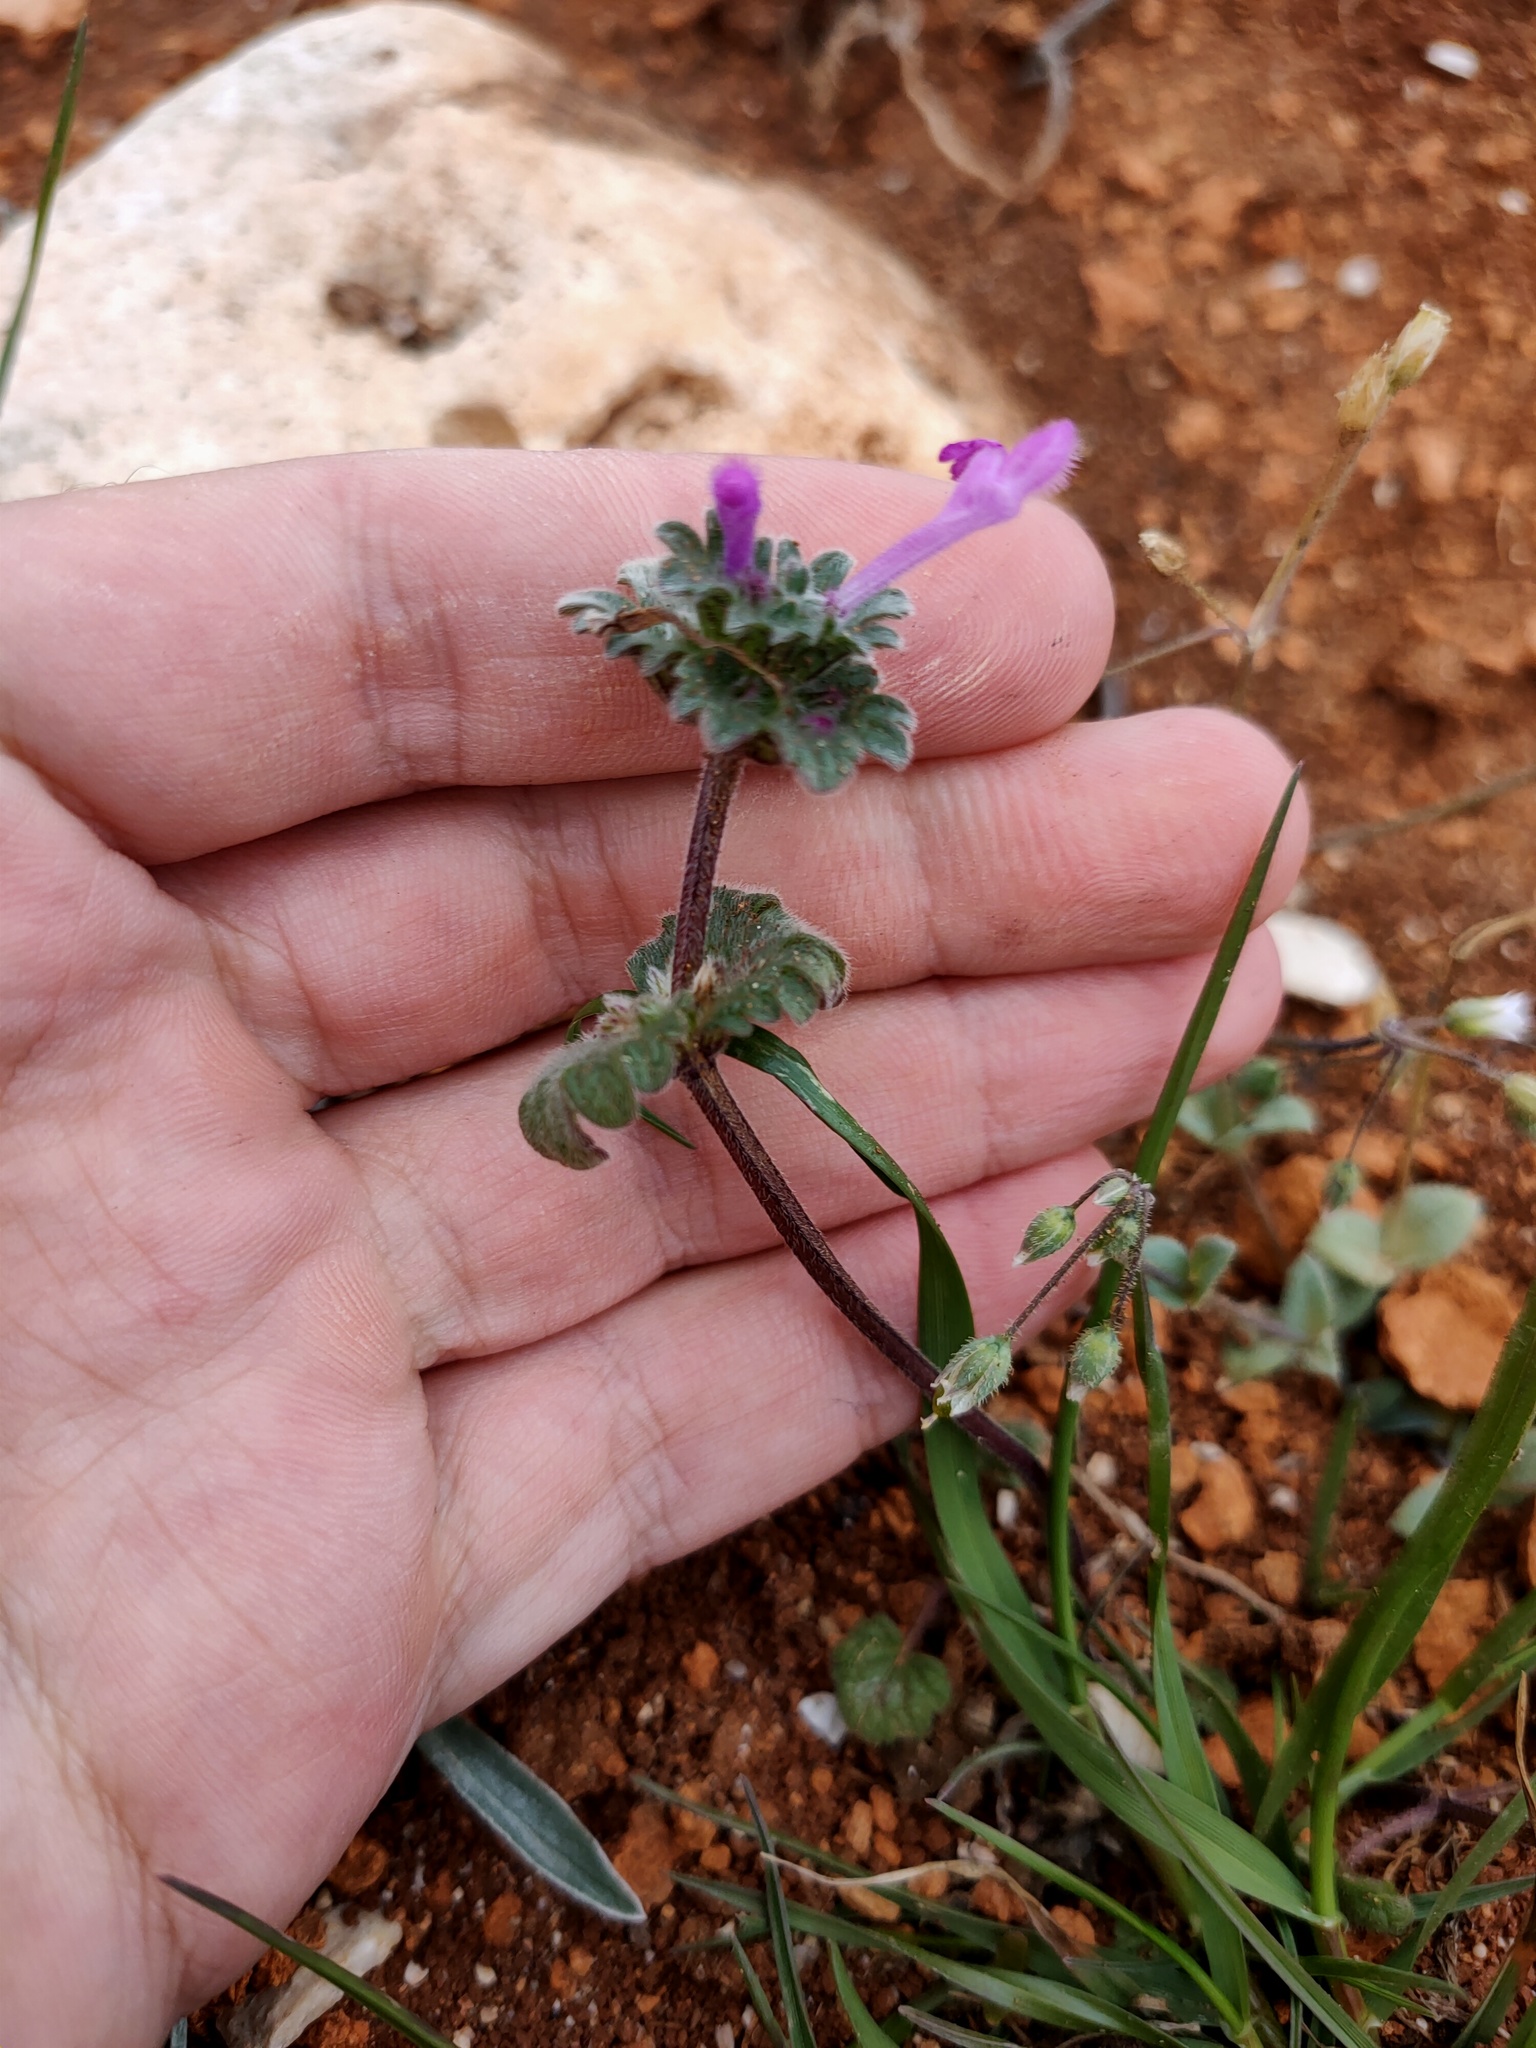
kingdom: Plantae
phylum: Tracheophyta
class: Magnoliopsida
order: Lamiales
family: Lamiaceae
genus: Lamium
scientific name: Lamium amplexicaule
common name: Henbit dead-nettle
